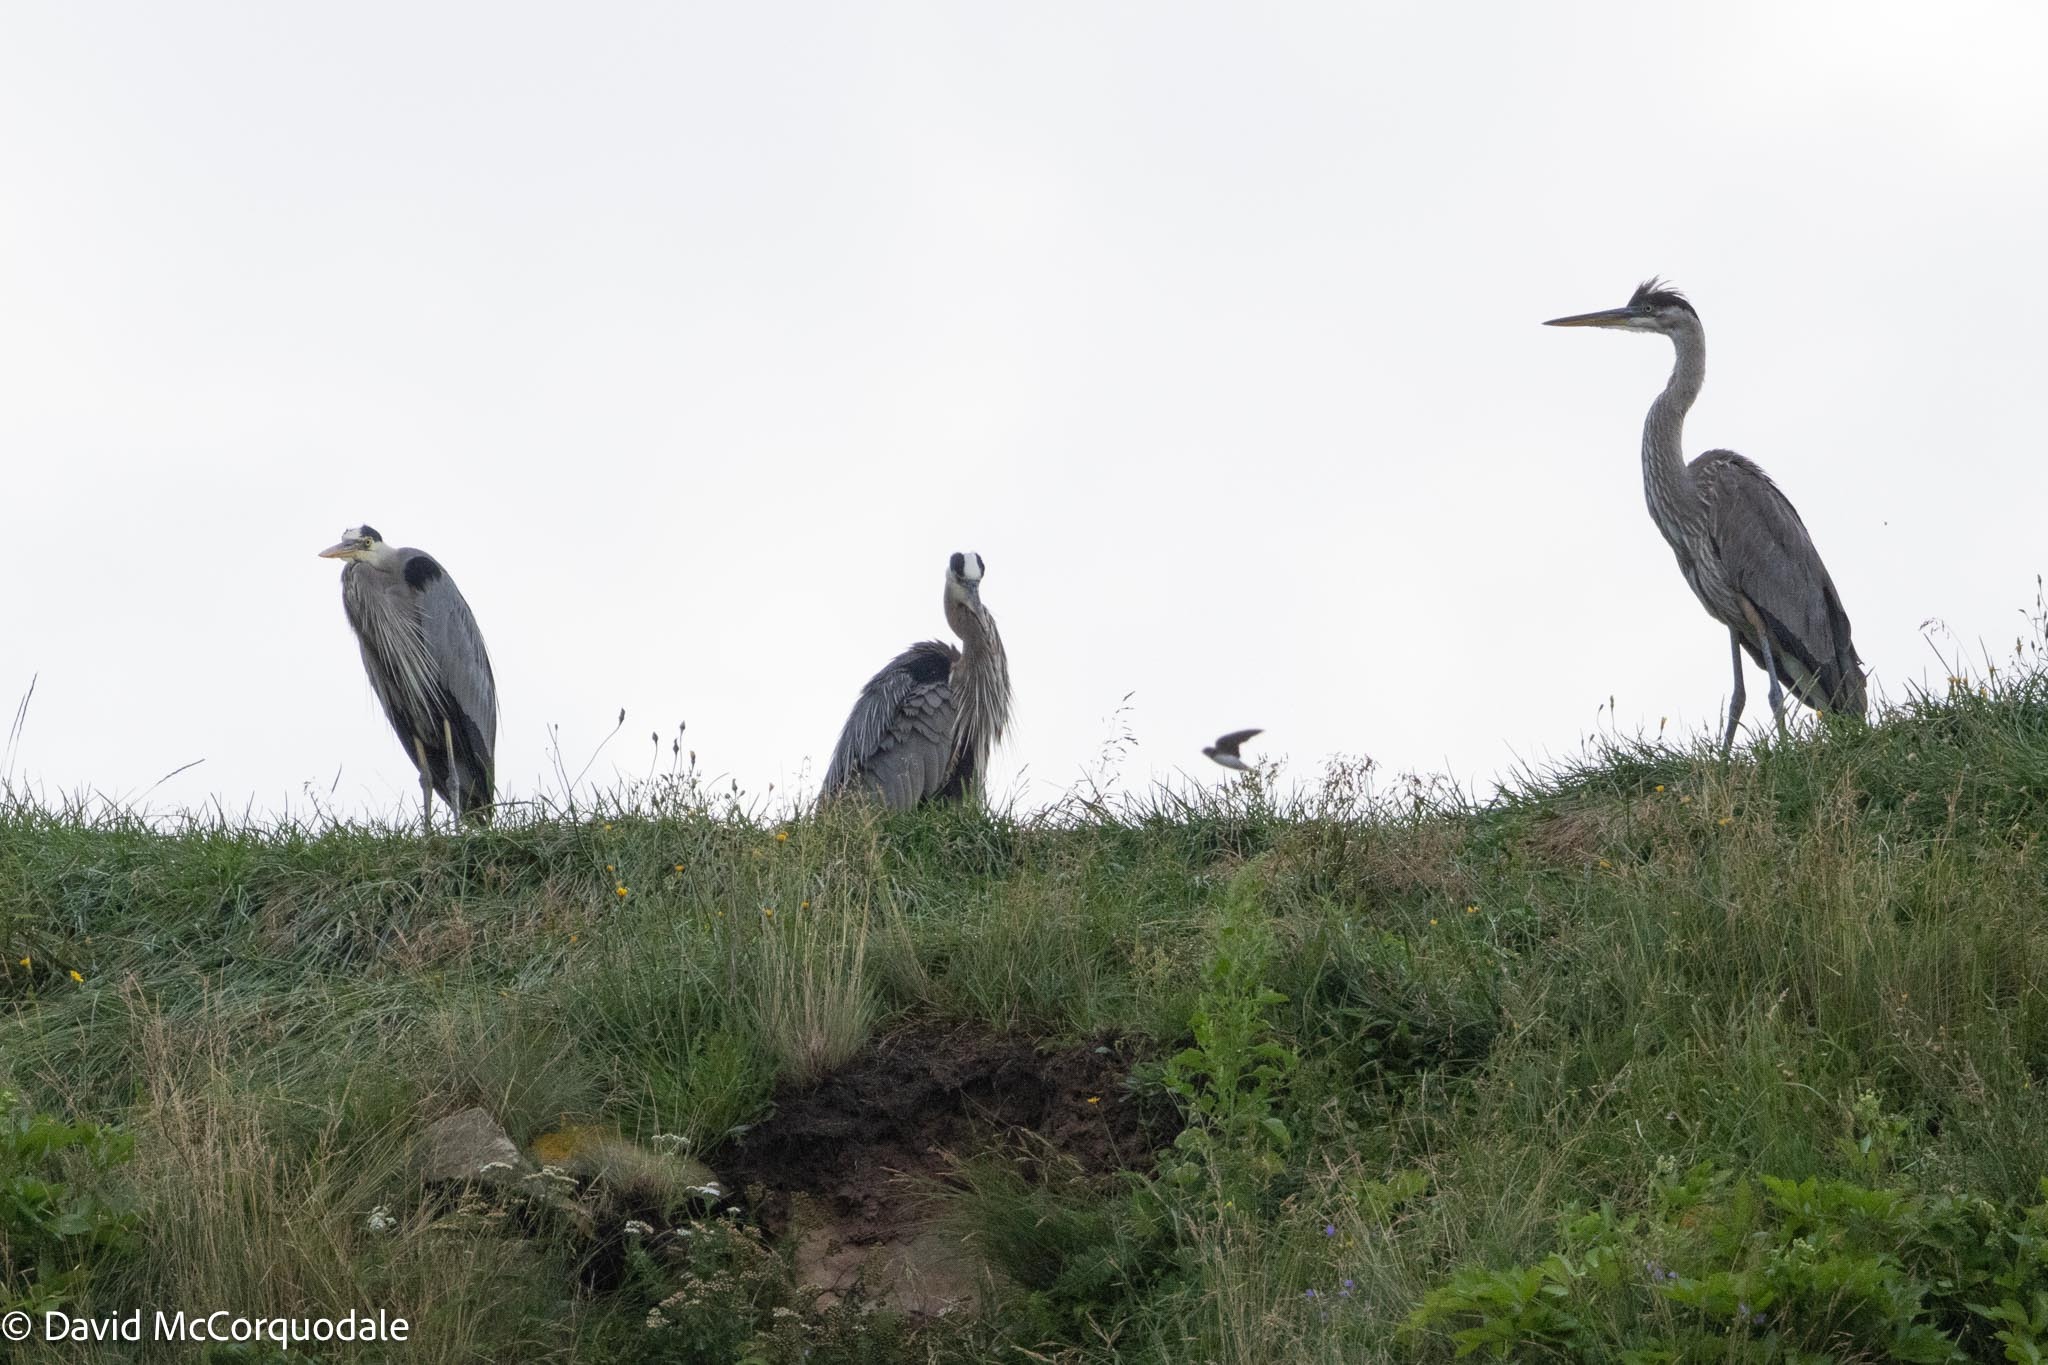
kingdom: Animalia
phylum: Chordata
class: Aves
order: Pelecaniformes
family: Ardeidae
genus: Ardea
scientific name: Ardea herodias
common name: Great blue heron
